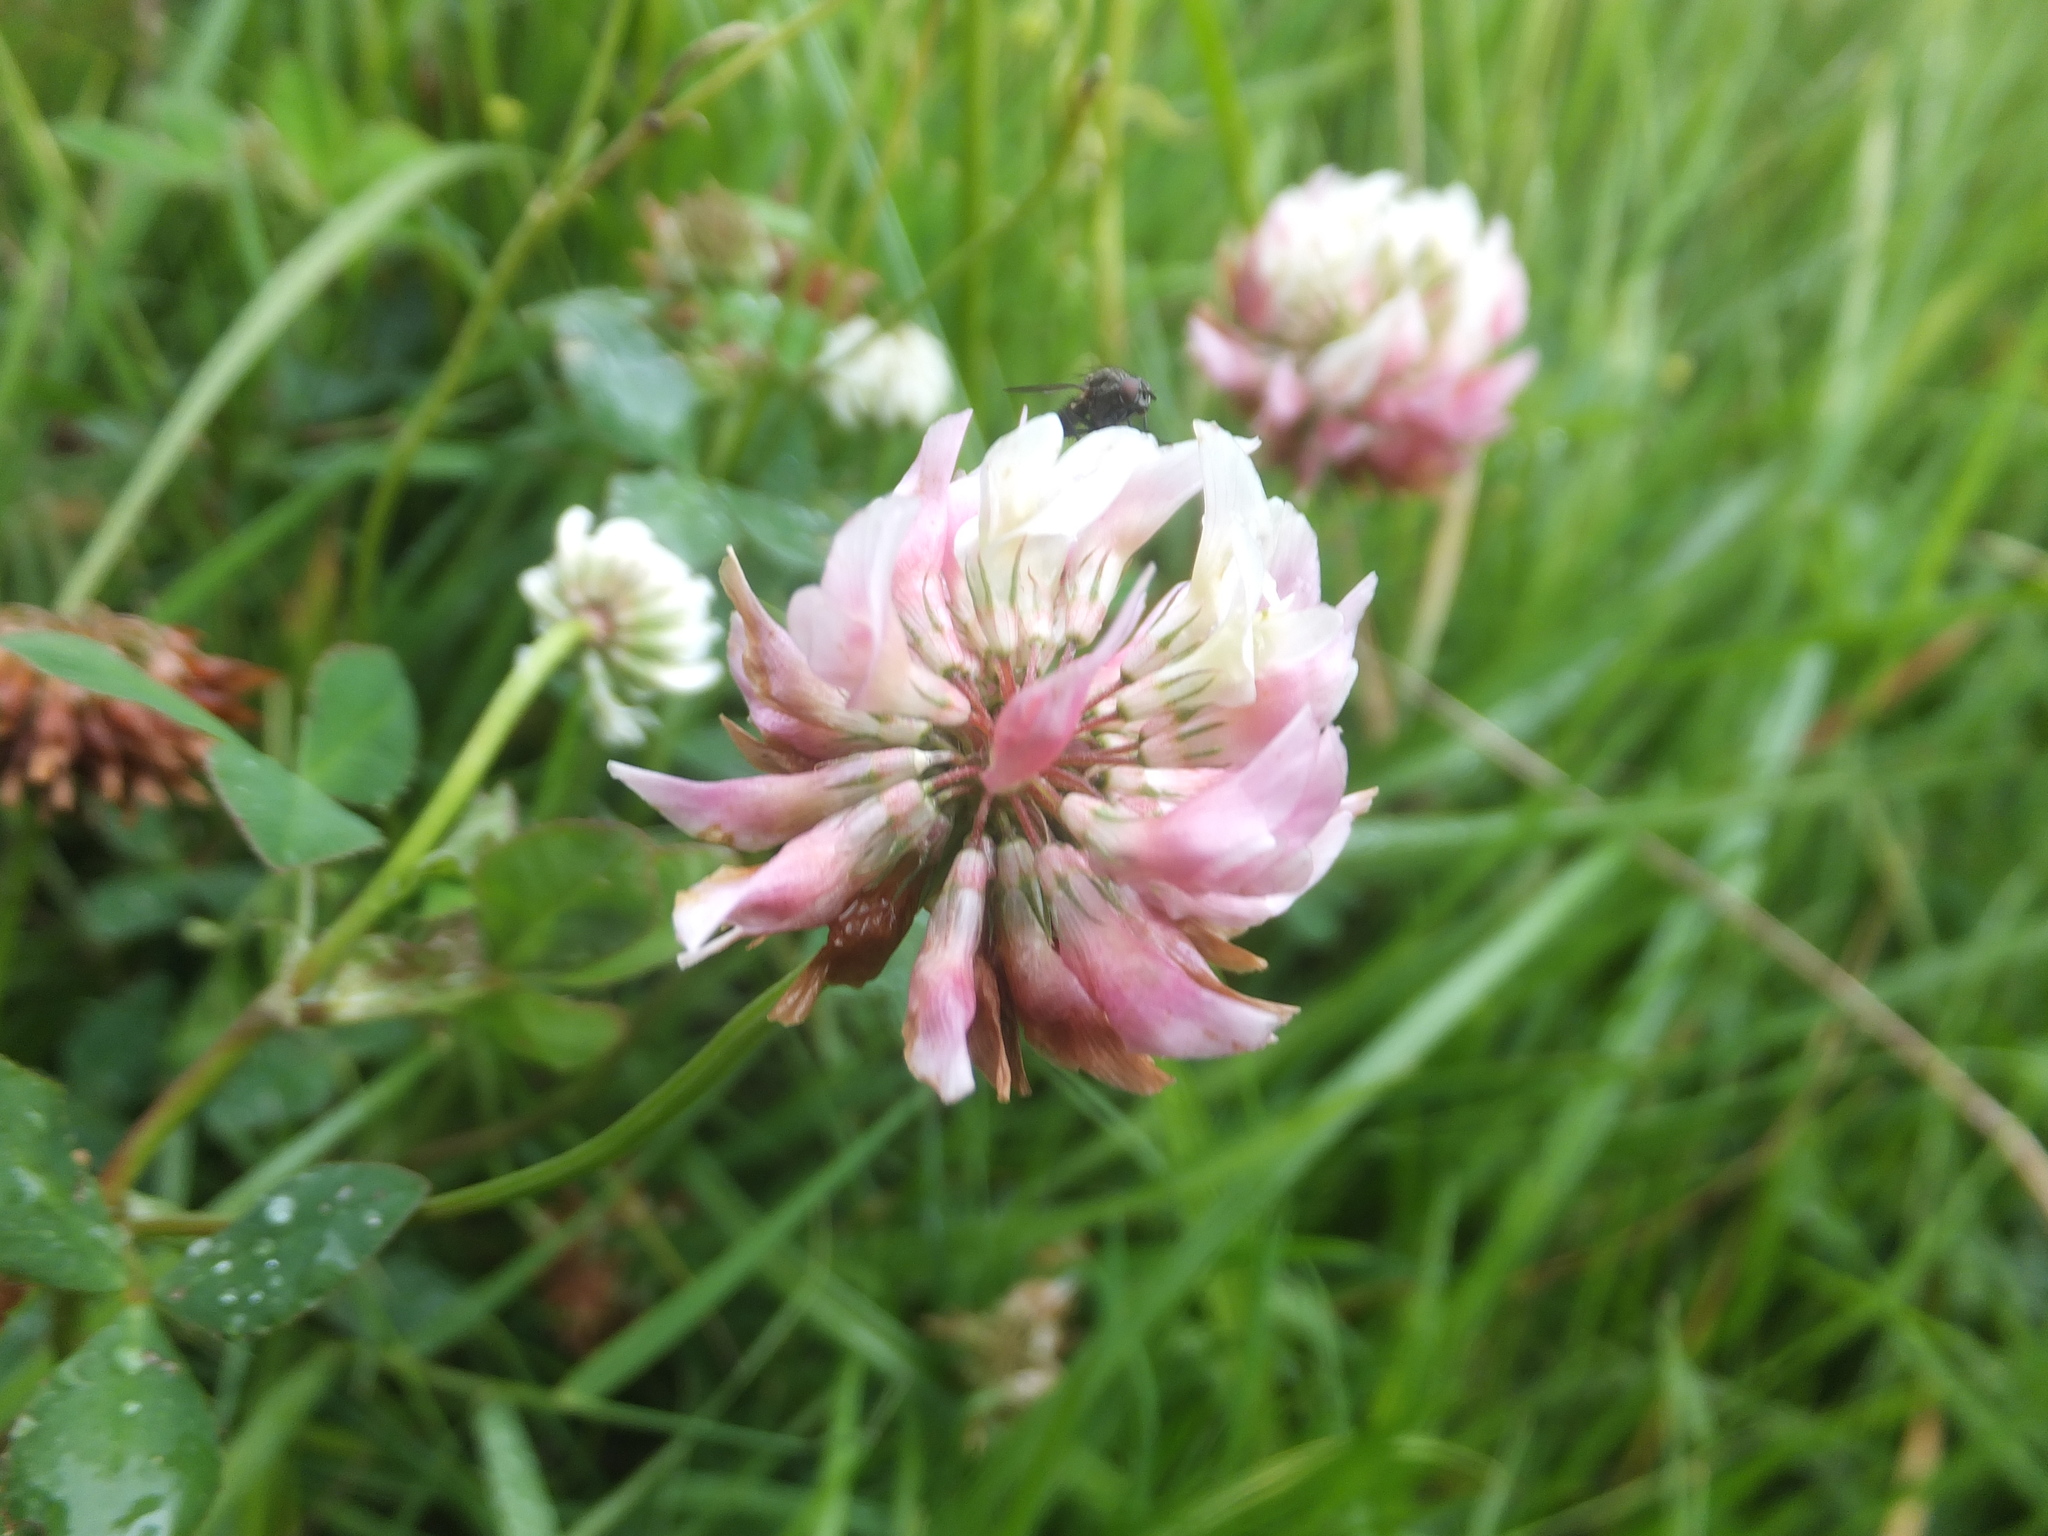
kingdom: Plantae
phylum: Tracheophyta
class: Magnoliopsida
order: Fabales
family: Fabaceae
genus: Trifolium
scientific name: Trifolium hybridum
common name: Alsike clover
